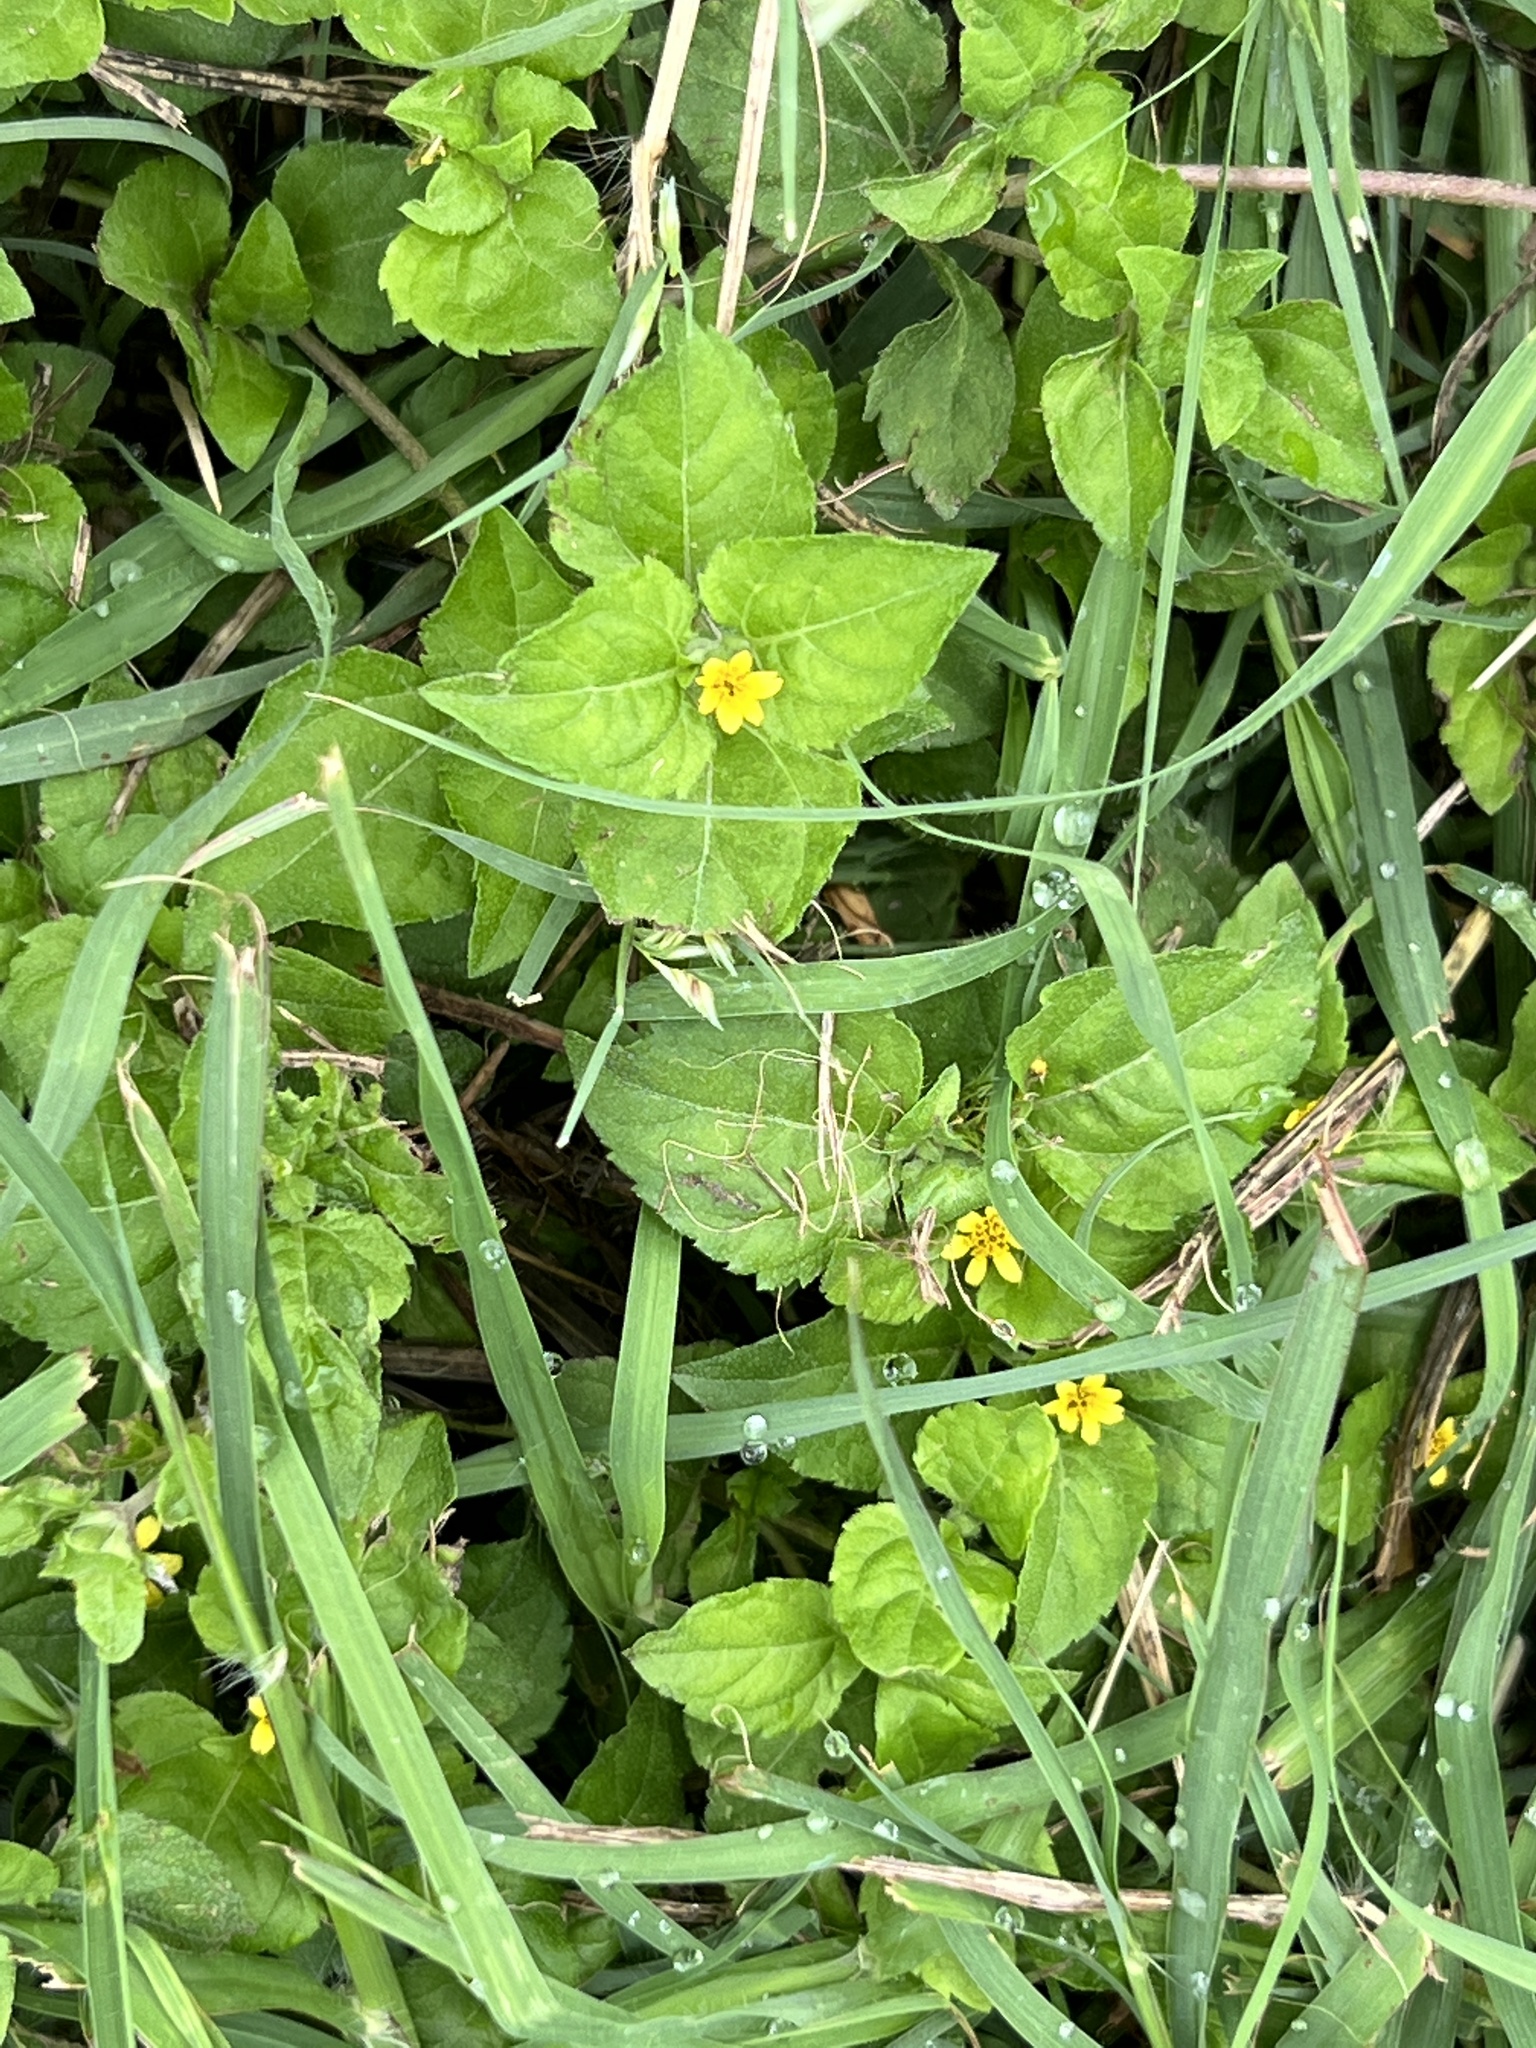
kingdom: Plantae
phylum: Tracheophyta
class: Magnoliopsida
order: Asterales
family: Asteraceae
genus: Calyptocarpus
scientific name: Calyptocarpus vialis
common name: Straggler daisy
